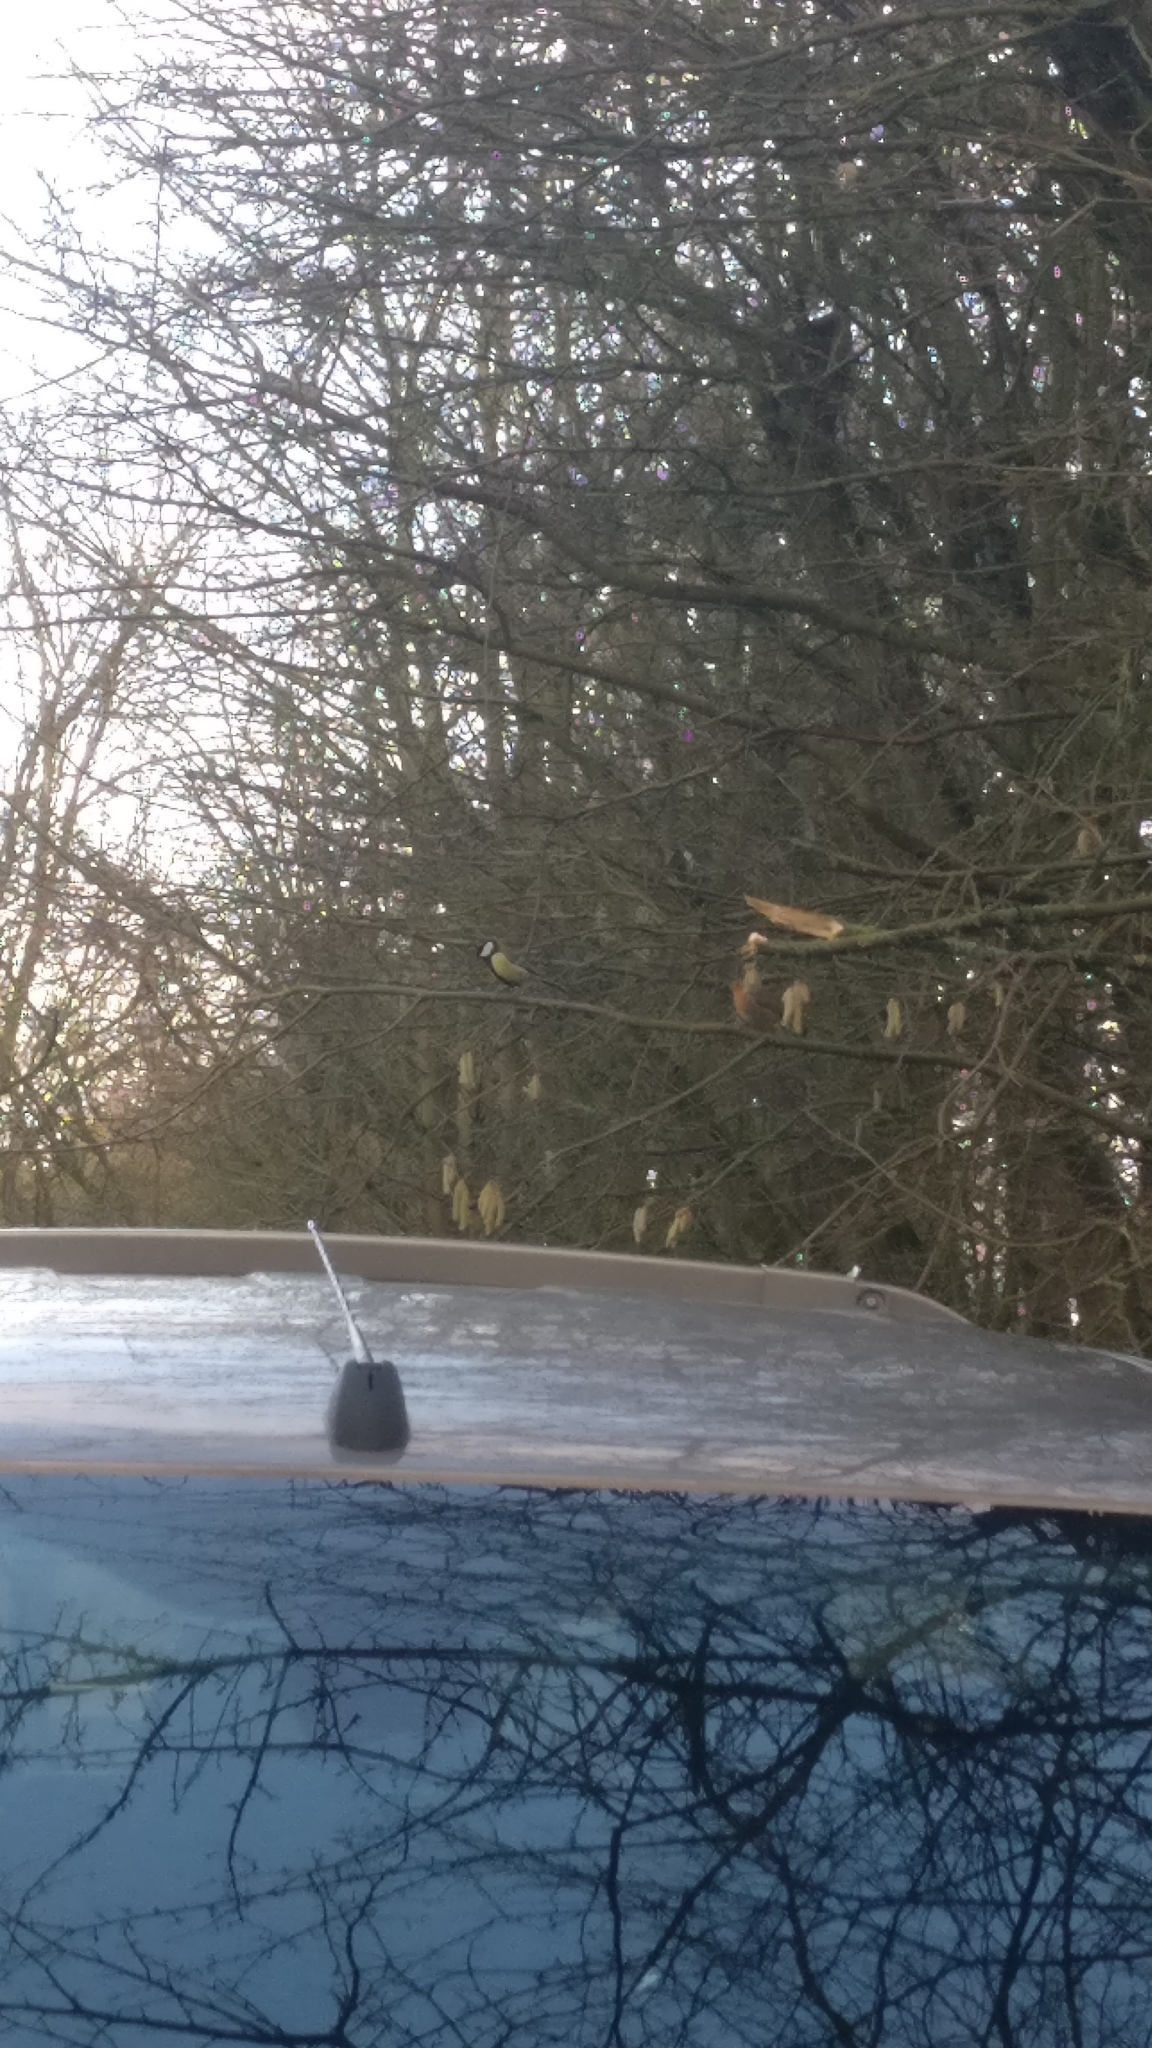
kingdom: Animalia
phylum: Chordata
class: Aves
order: Passeriformes
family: Paridae
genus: Parus
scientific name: Parus major
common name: Great tit
